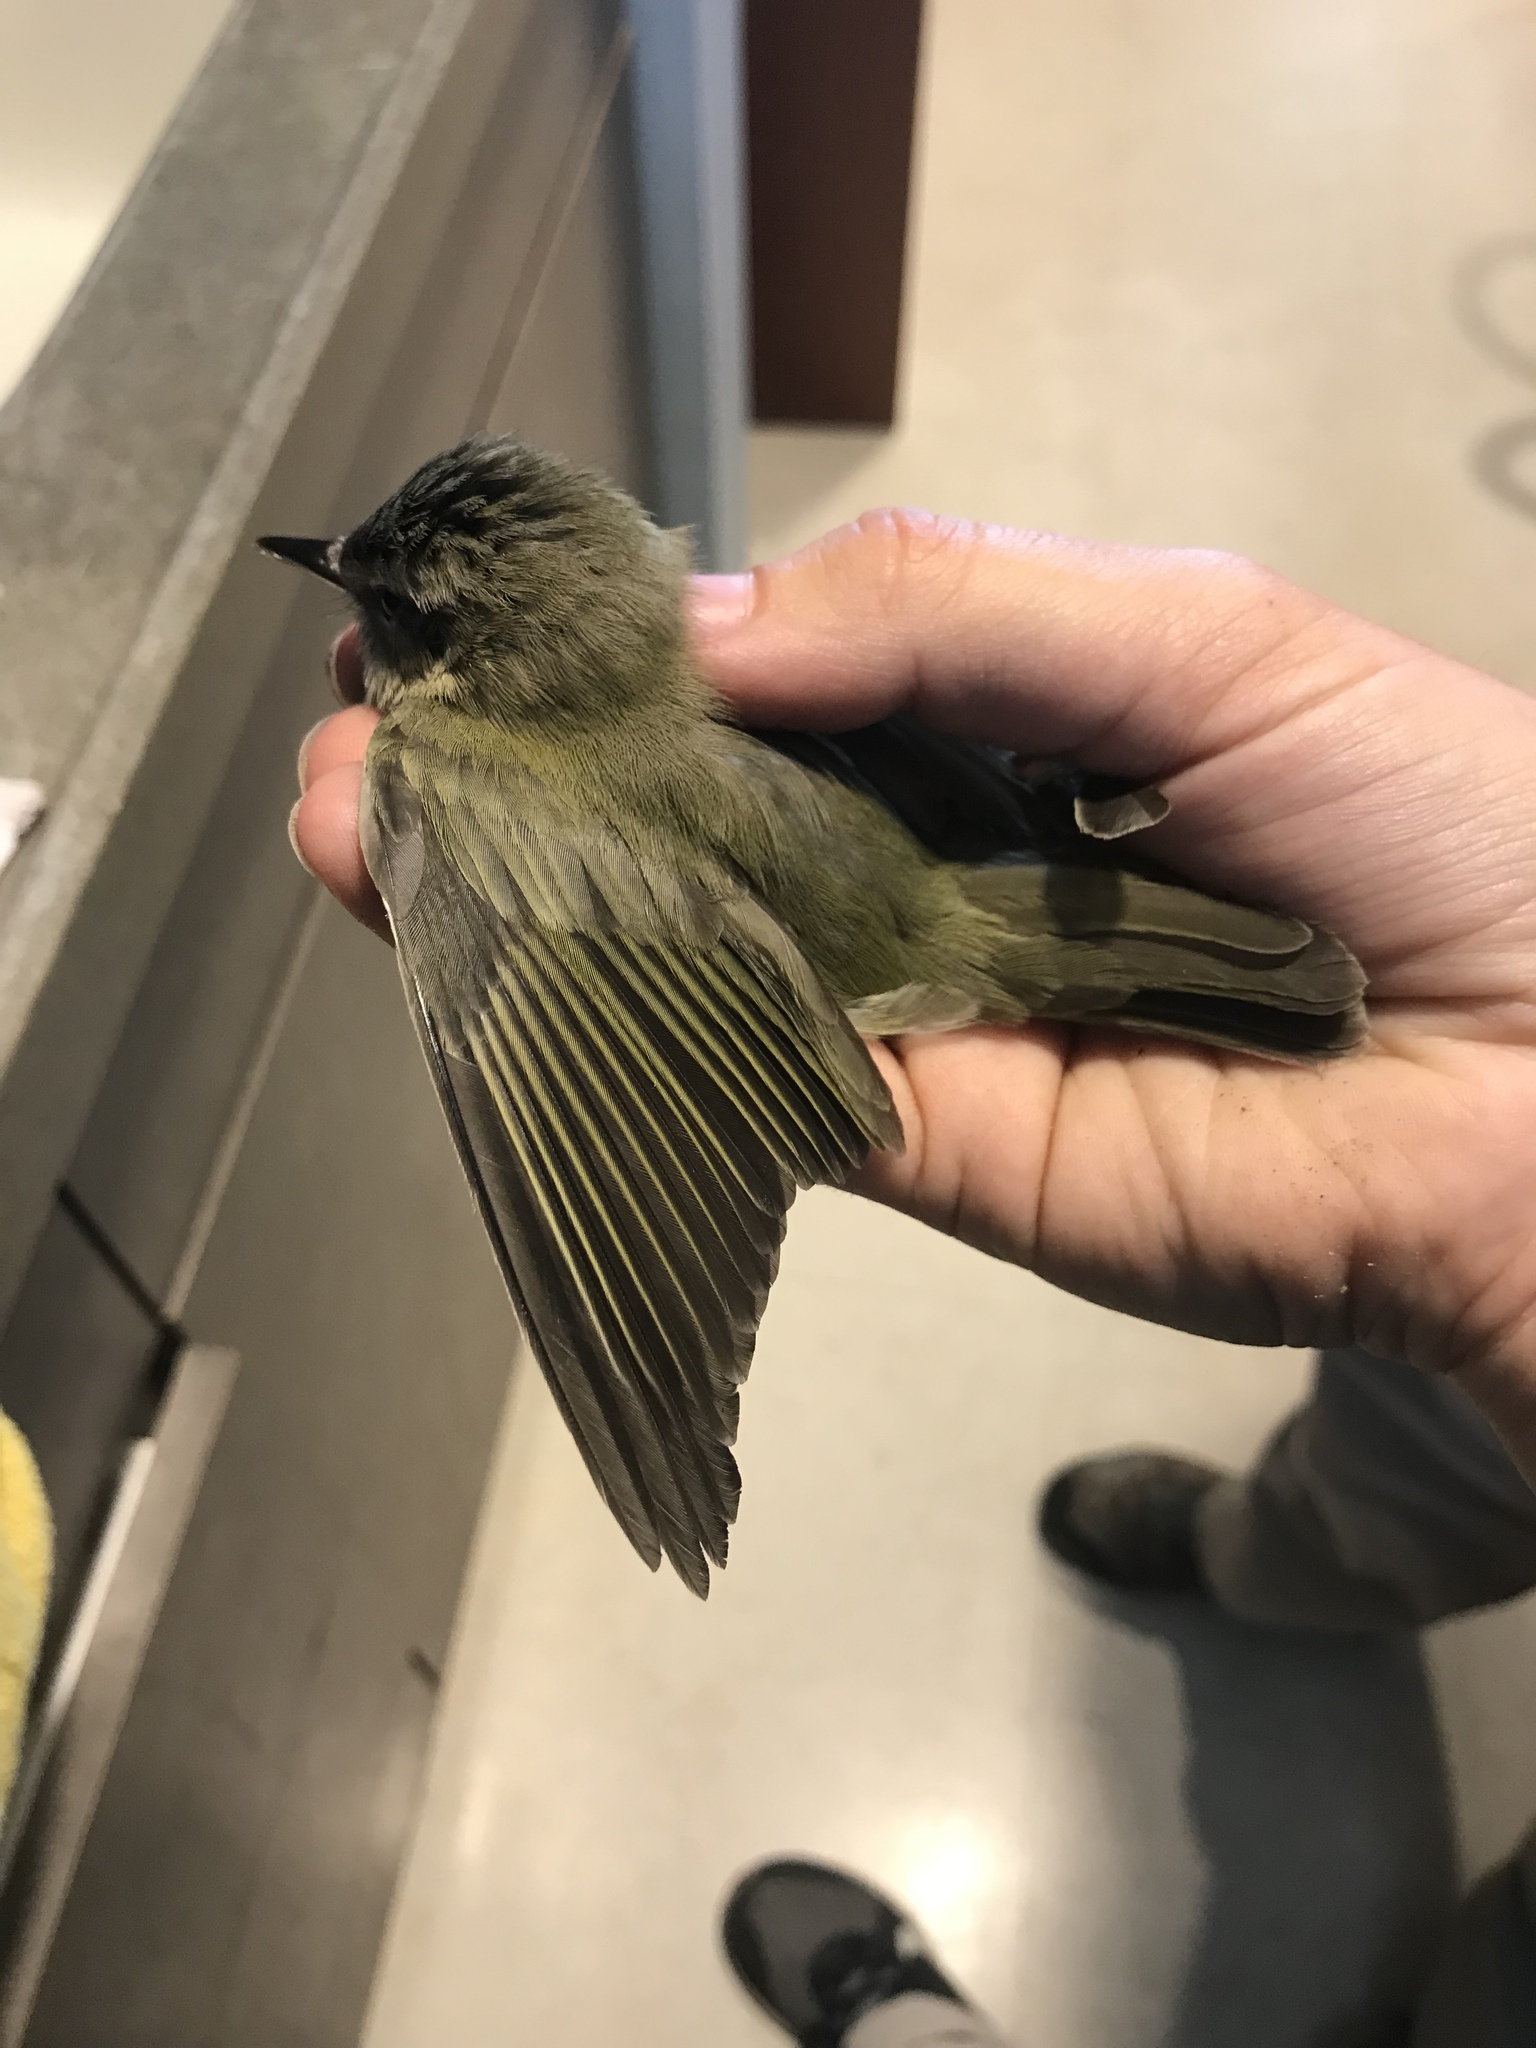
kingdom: Animalia
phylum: Chordata
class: Aves
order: Passeriformes
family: Vireonidae
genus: Vireo
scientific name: Vireo olivaceus
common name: Red-eyed vireo
